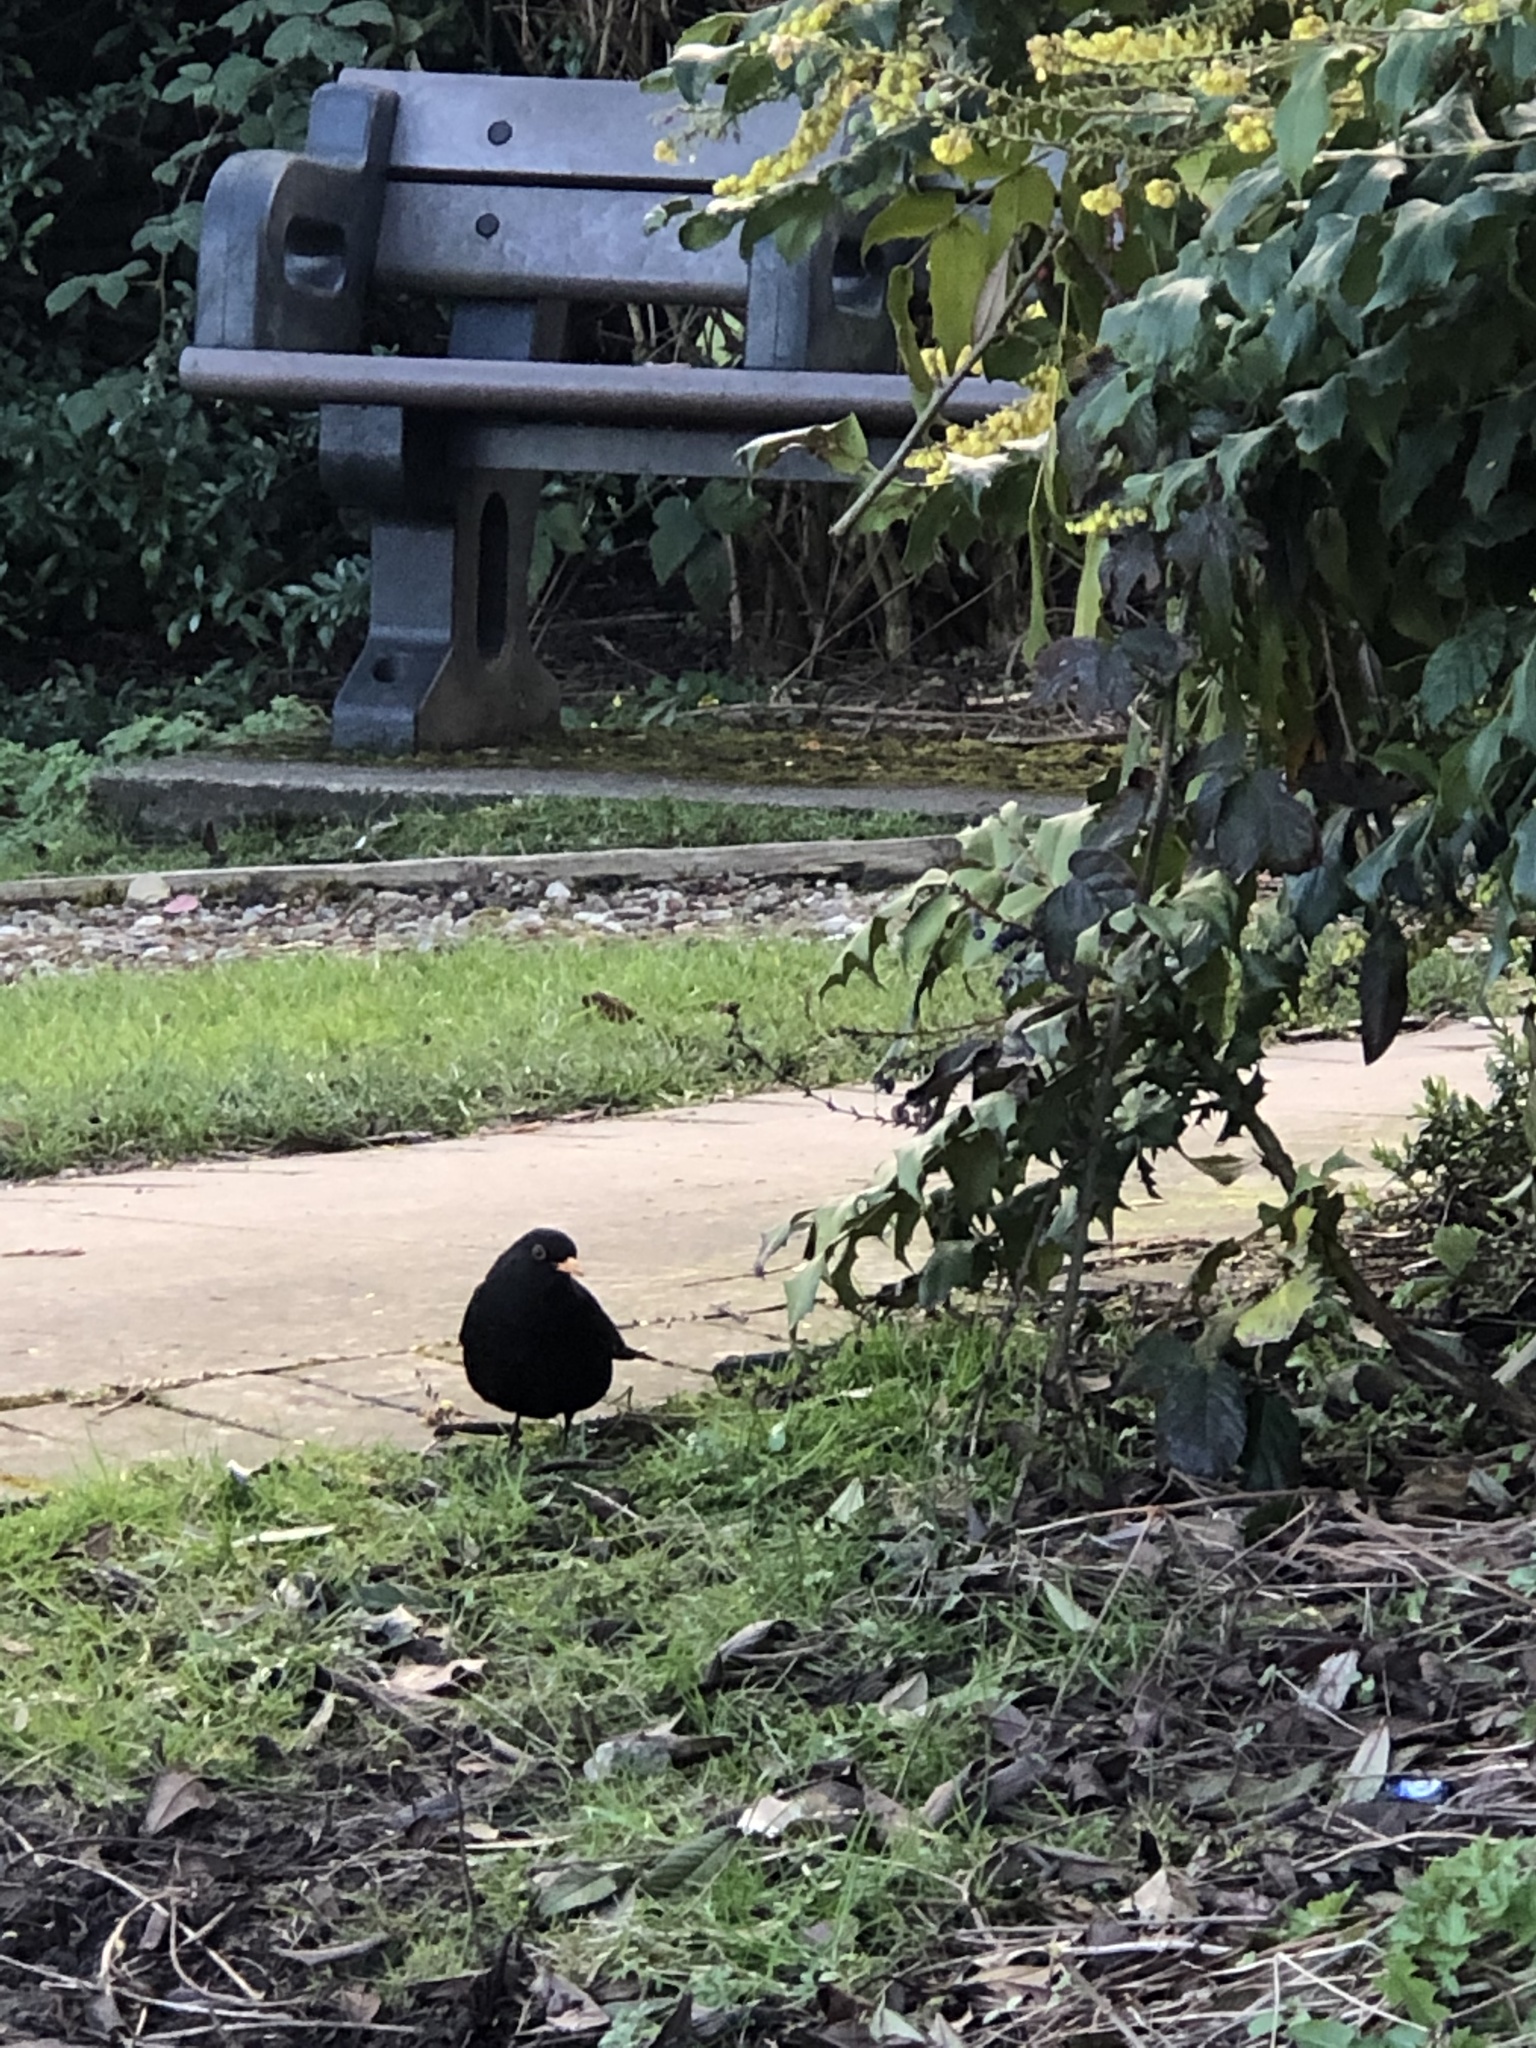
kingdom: Animalia
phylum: Chordata
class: Aves
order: Passeriformes
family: Turdidae
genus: Turdus
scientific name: Turdus merula
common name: Common blackbird
